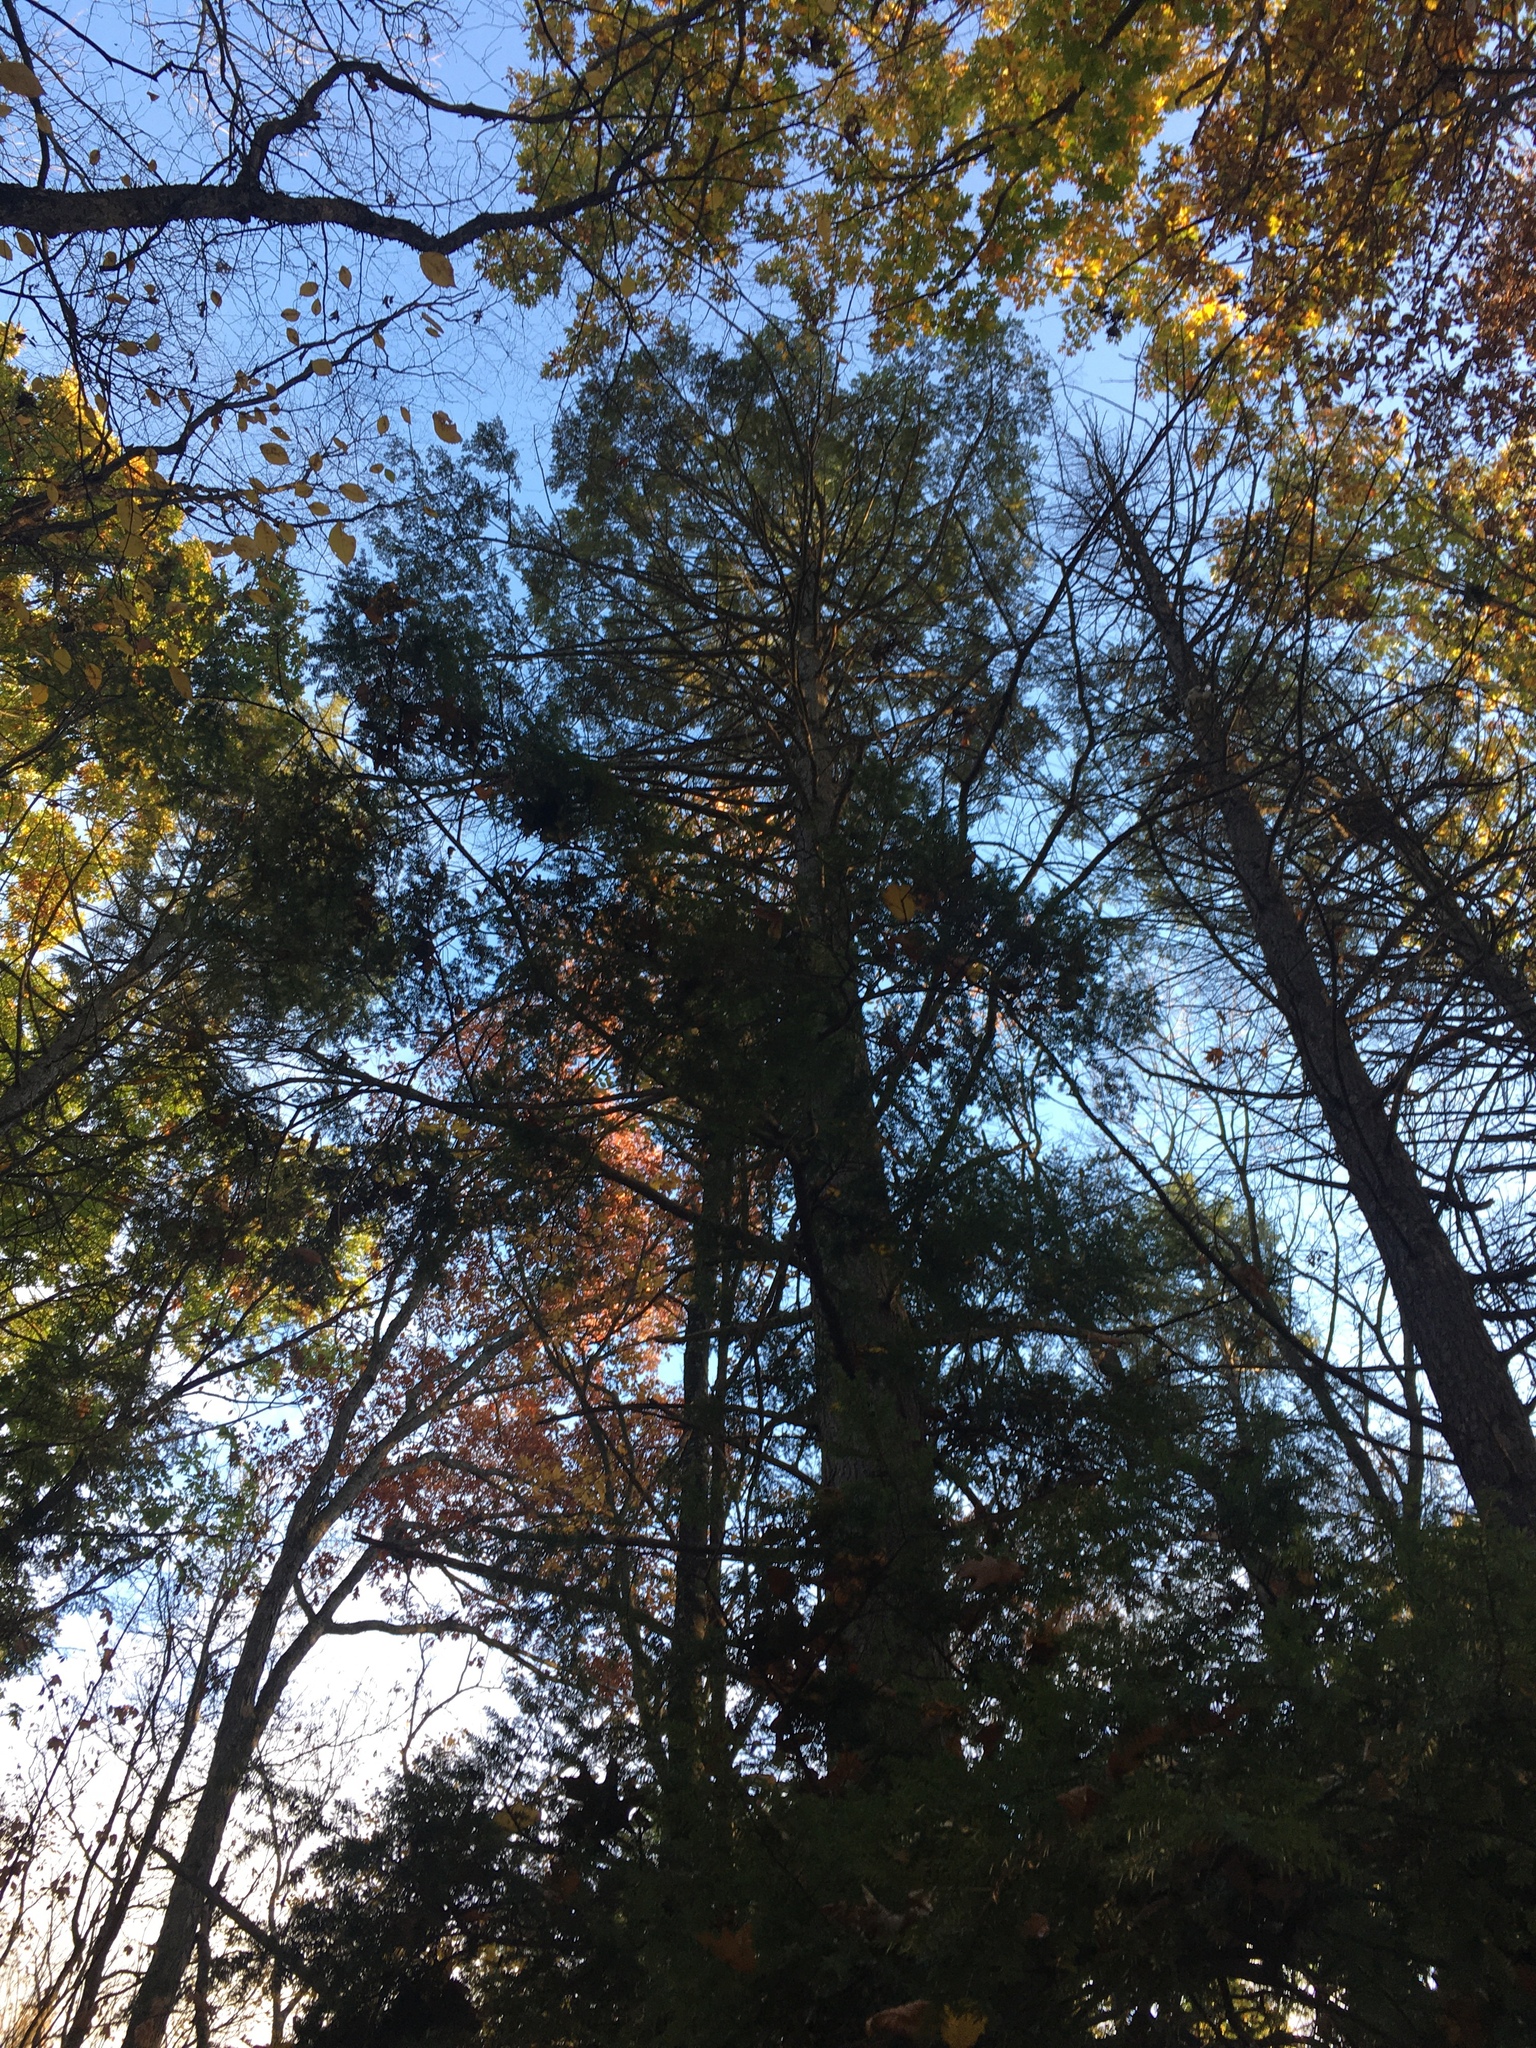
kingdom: Plantae
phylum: Tracheophyta
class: Pinopsida
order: Pinales
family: Pinaceae
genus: Tsuga
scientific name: Tsuga canadensis
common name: Eastern hemlock
